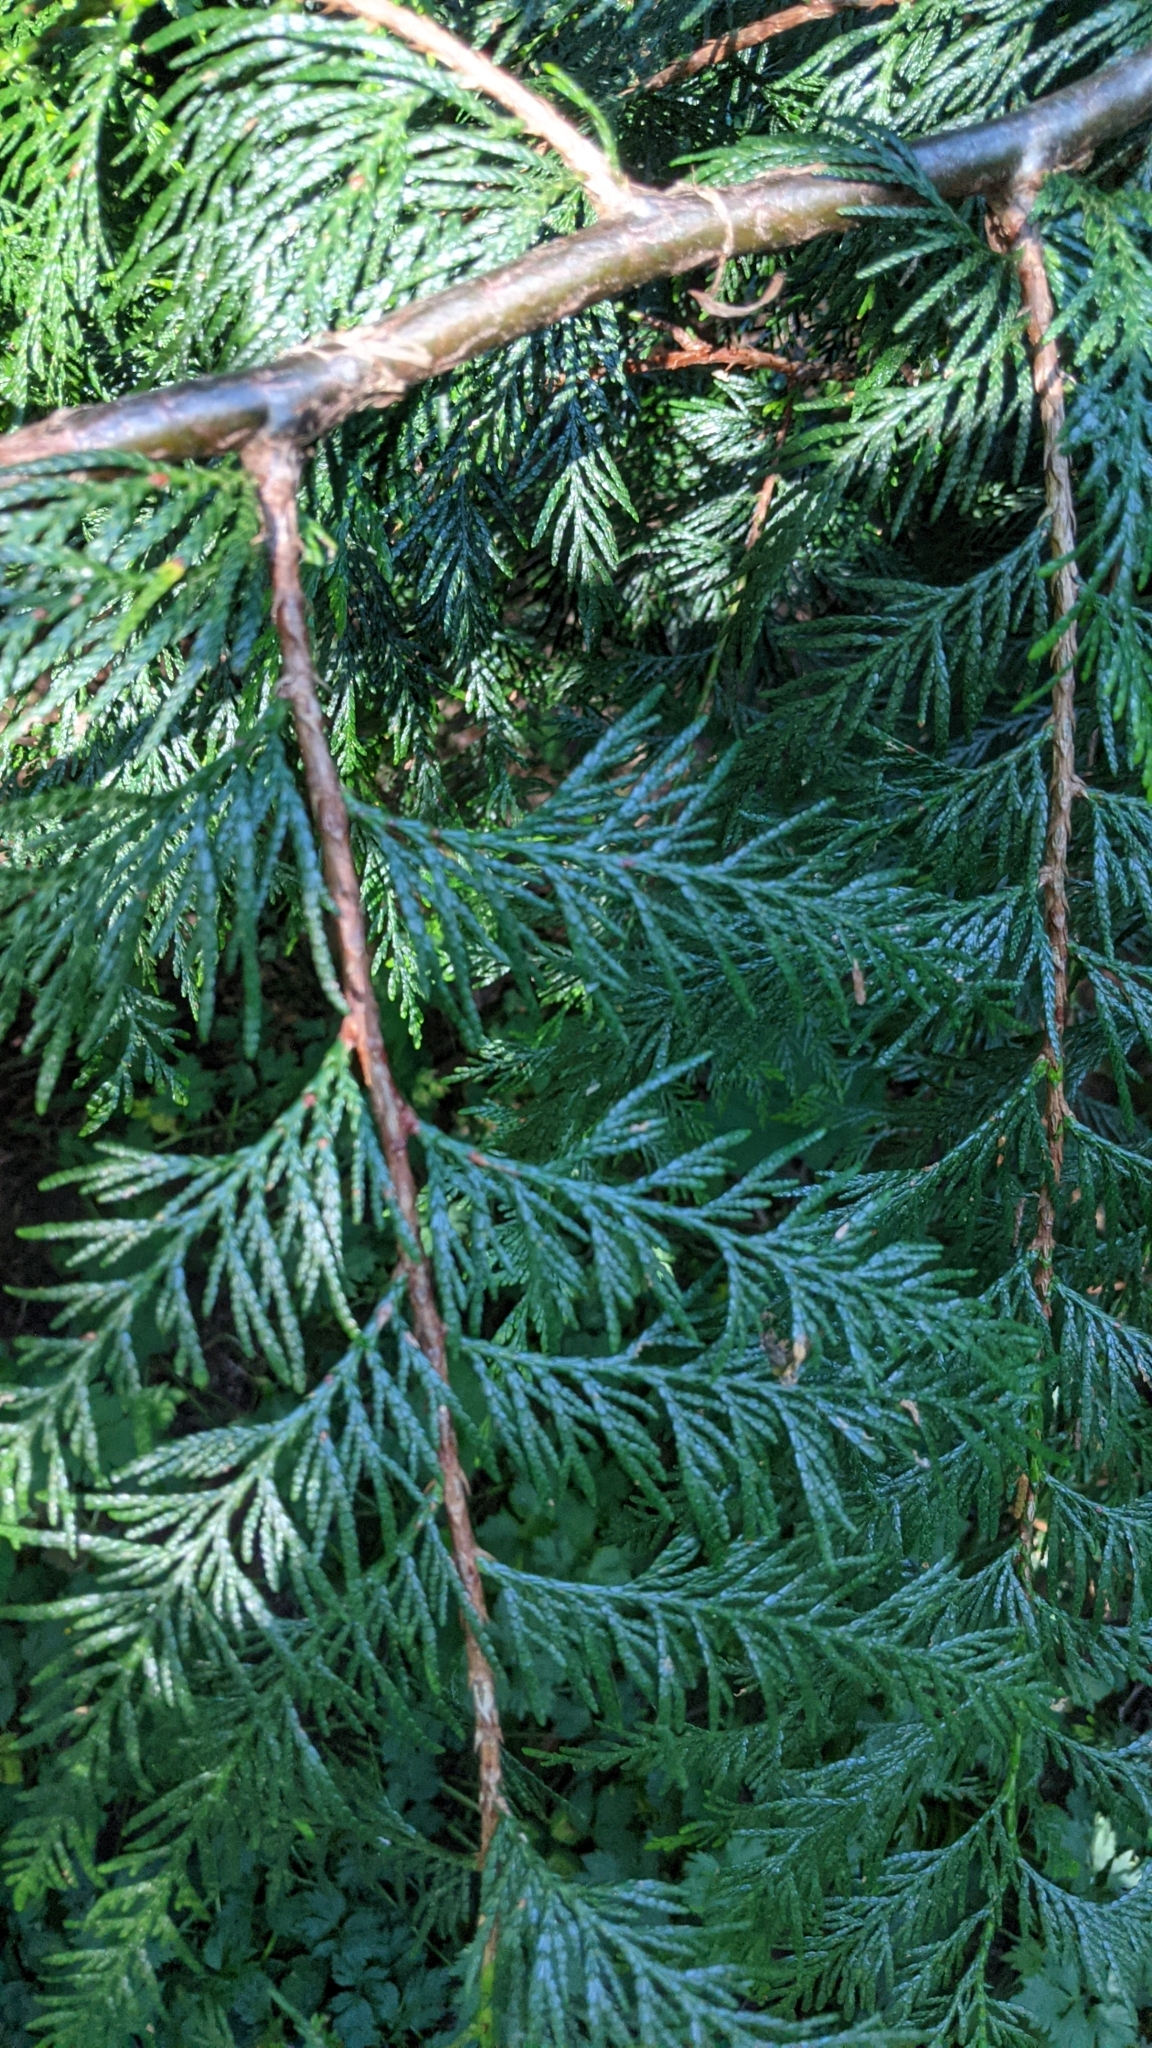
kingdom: Plantae
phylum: Tracheophyta
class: Pinopsida
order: Pinales
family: Cupressaceae
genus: Thuja
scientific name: Thuja plicata
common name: Western red-cedar
